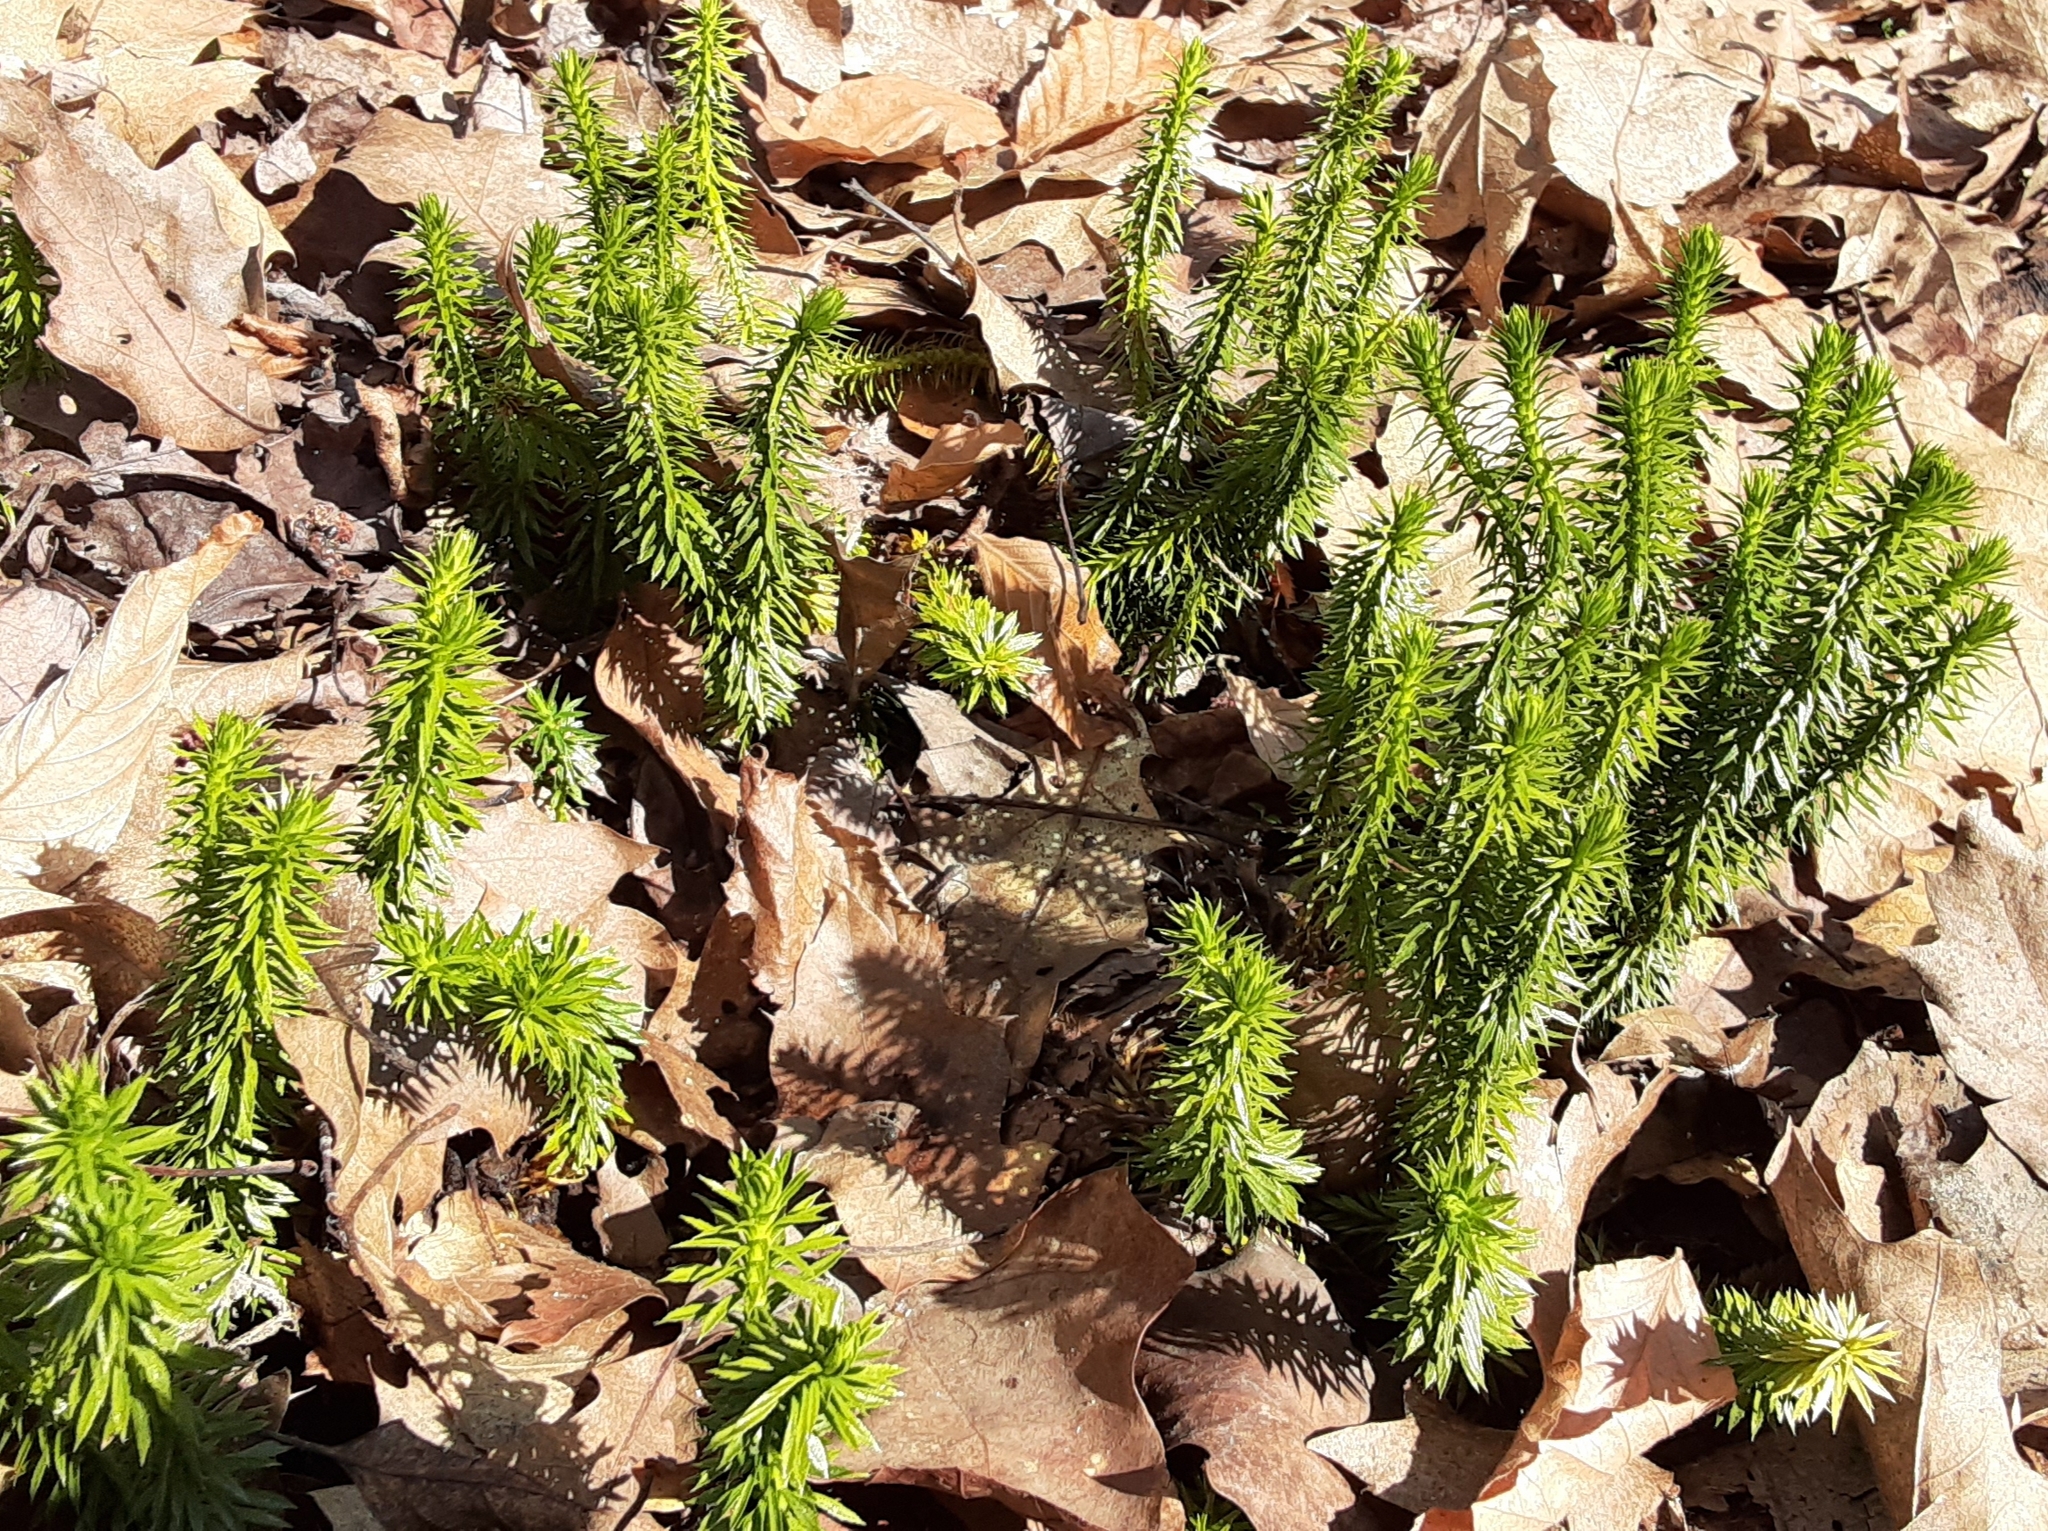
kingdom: Plantae
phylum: Tracheophyta
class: Lycopodiopsida
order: Lycopodiales
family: Lycopodiaceae
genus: Huperzia
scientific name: Huperzia lucidula
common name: Shining clubmoss
